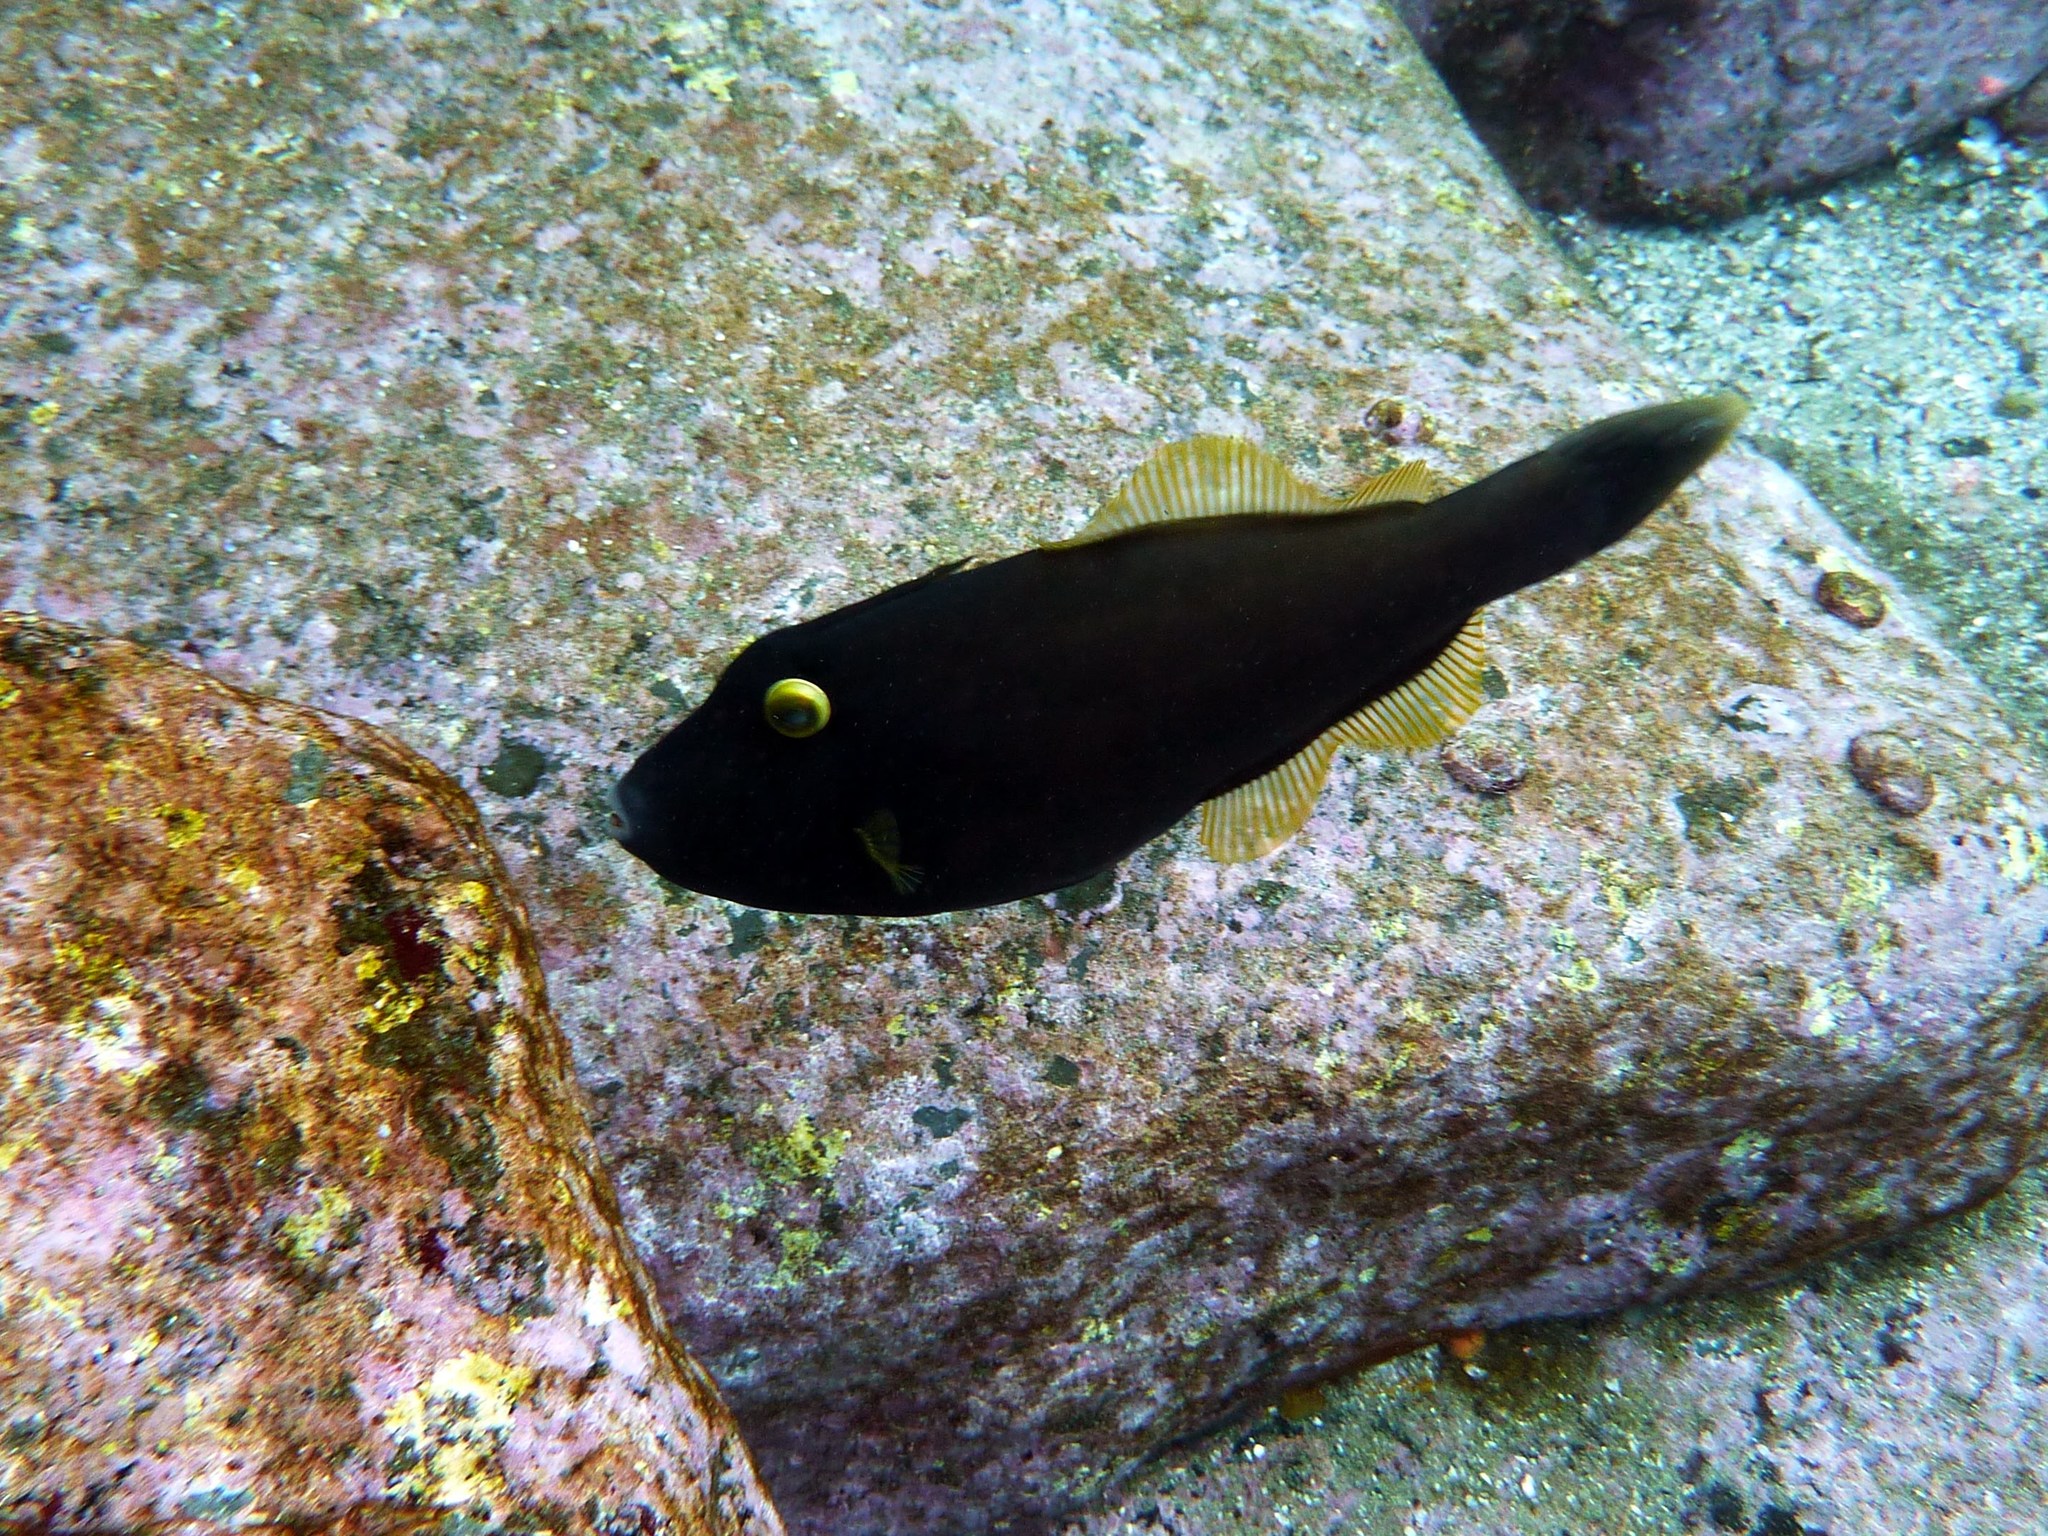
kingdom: Animalia
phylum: Chordata
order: Tetraodontiformes
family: Monacanthidae
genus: Eubalichthys
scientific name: Eubalichthys bucephalus
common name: Black reef leatherjacket
